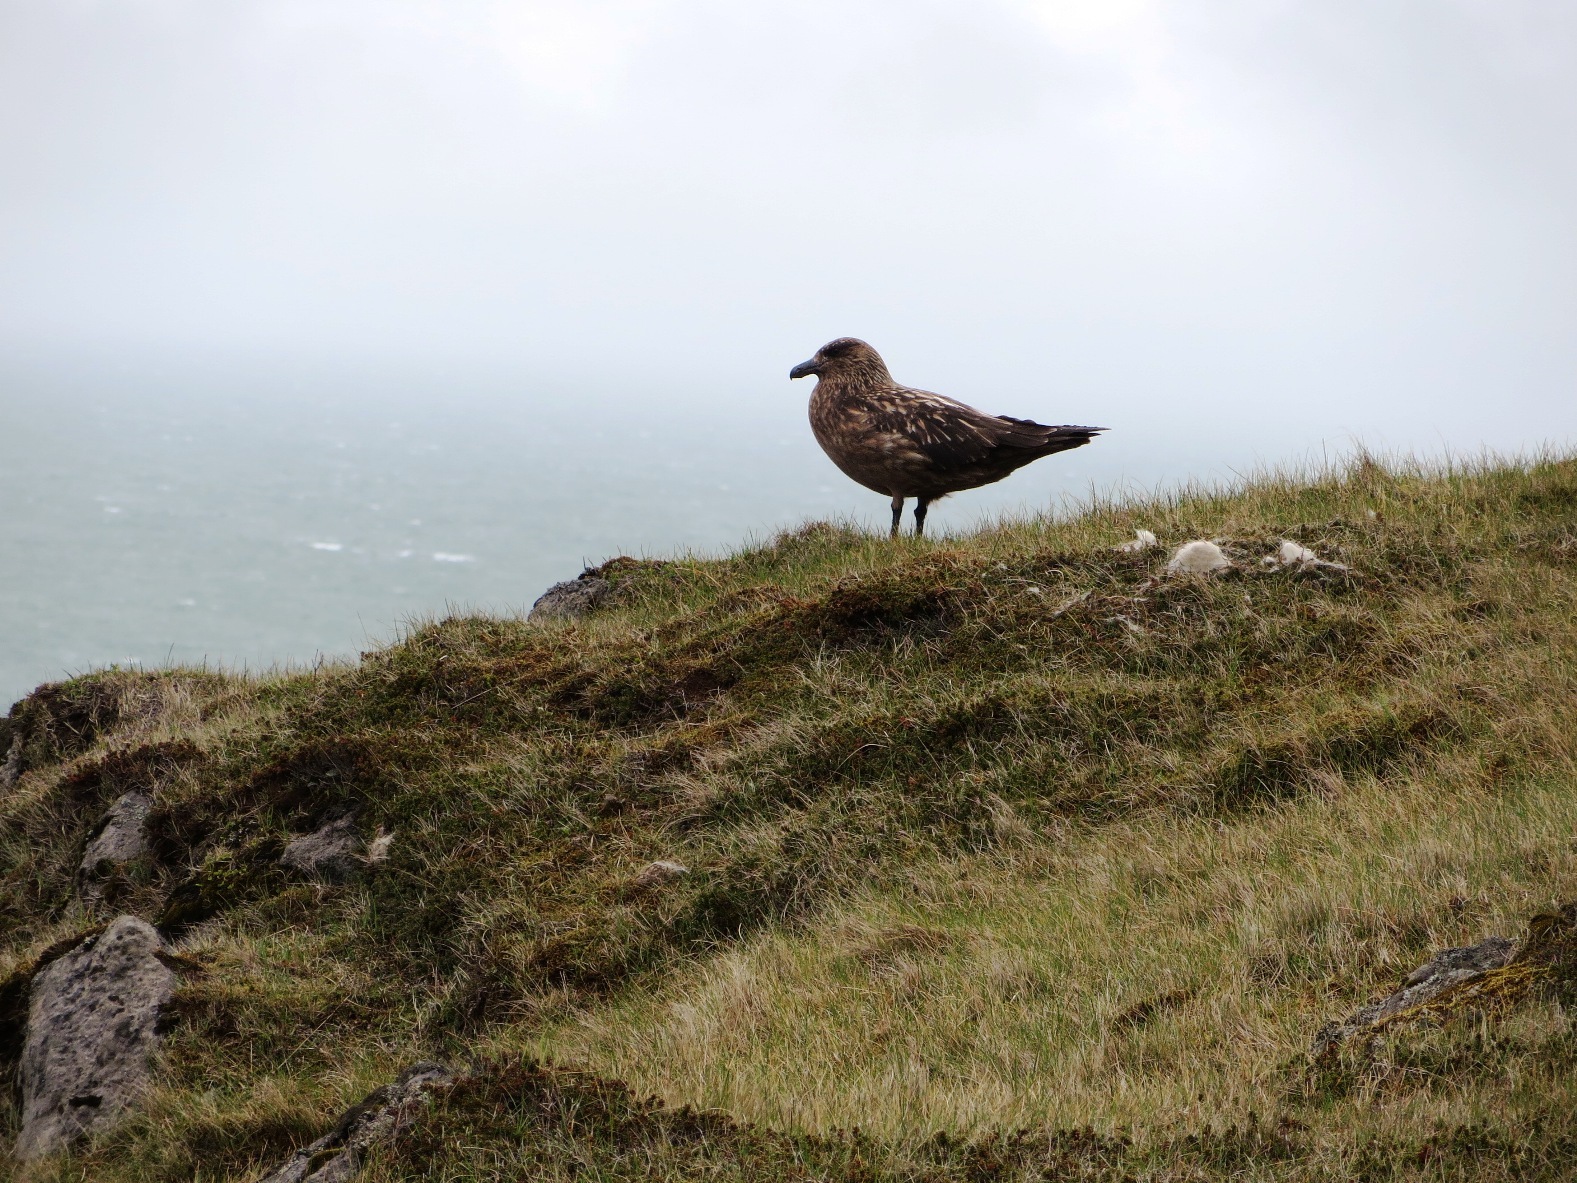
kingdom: Animalia
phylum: Chordata
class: Aves
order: Charadriiformes
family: Stercorariidae
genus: Stercorarius
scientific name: Stercorarius skua
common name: Great skua
